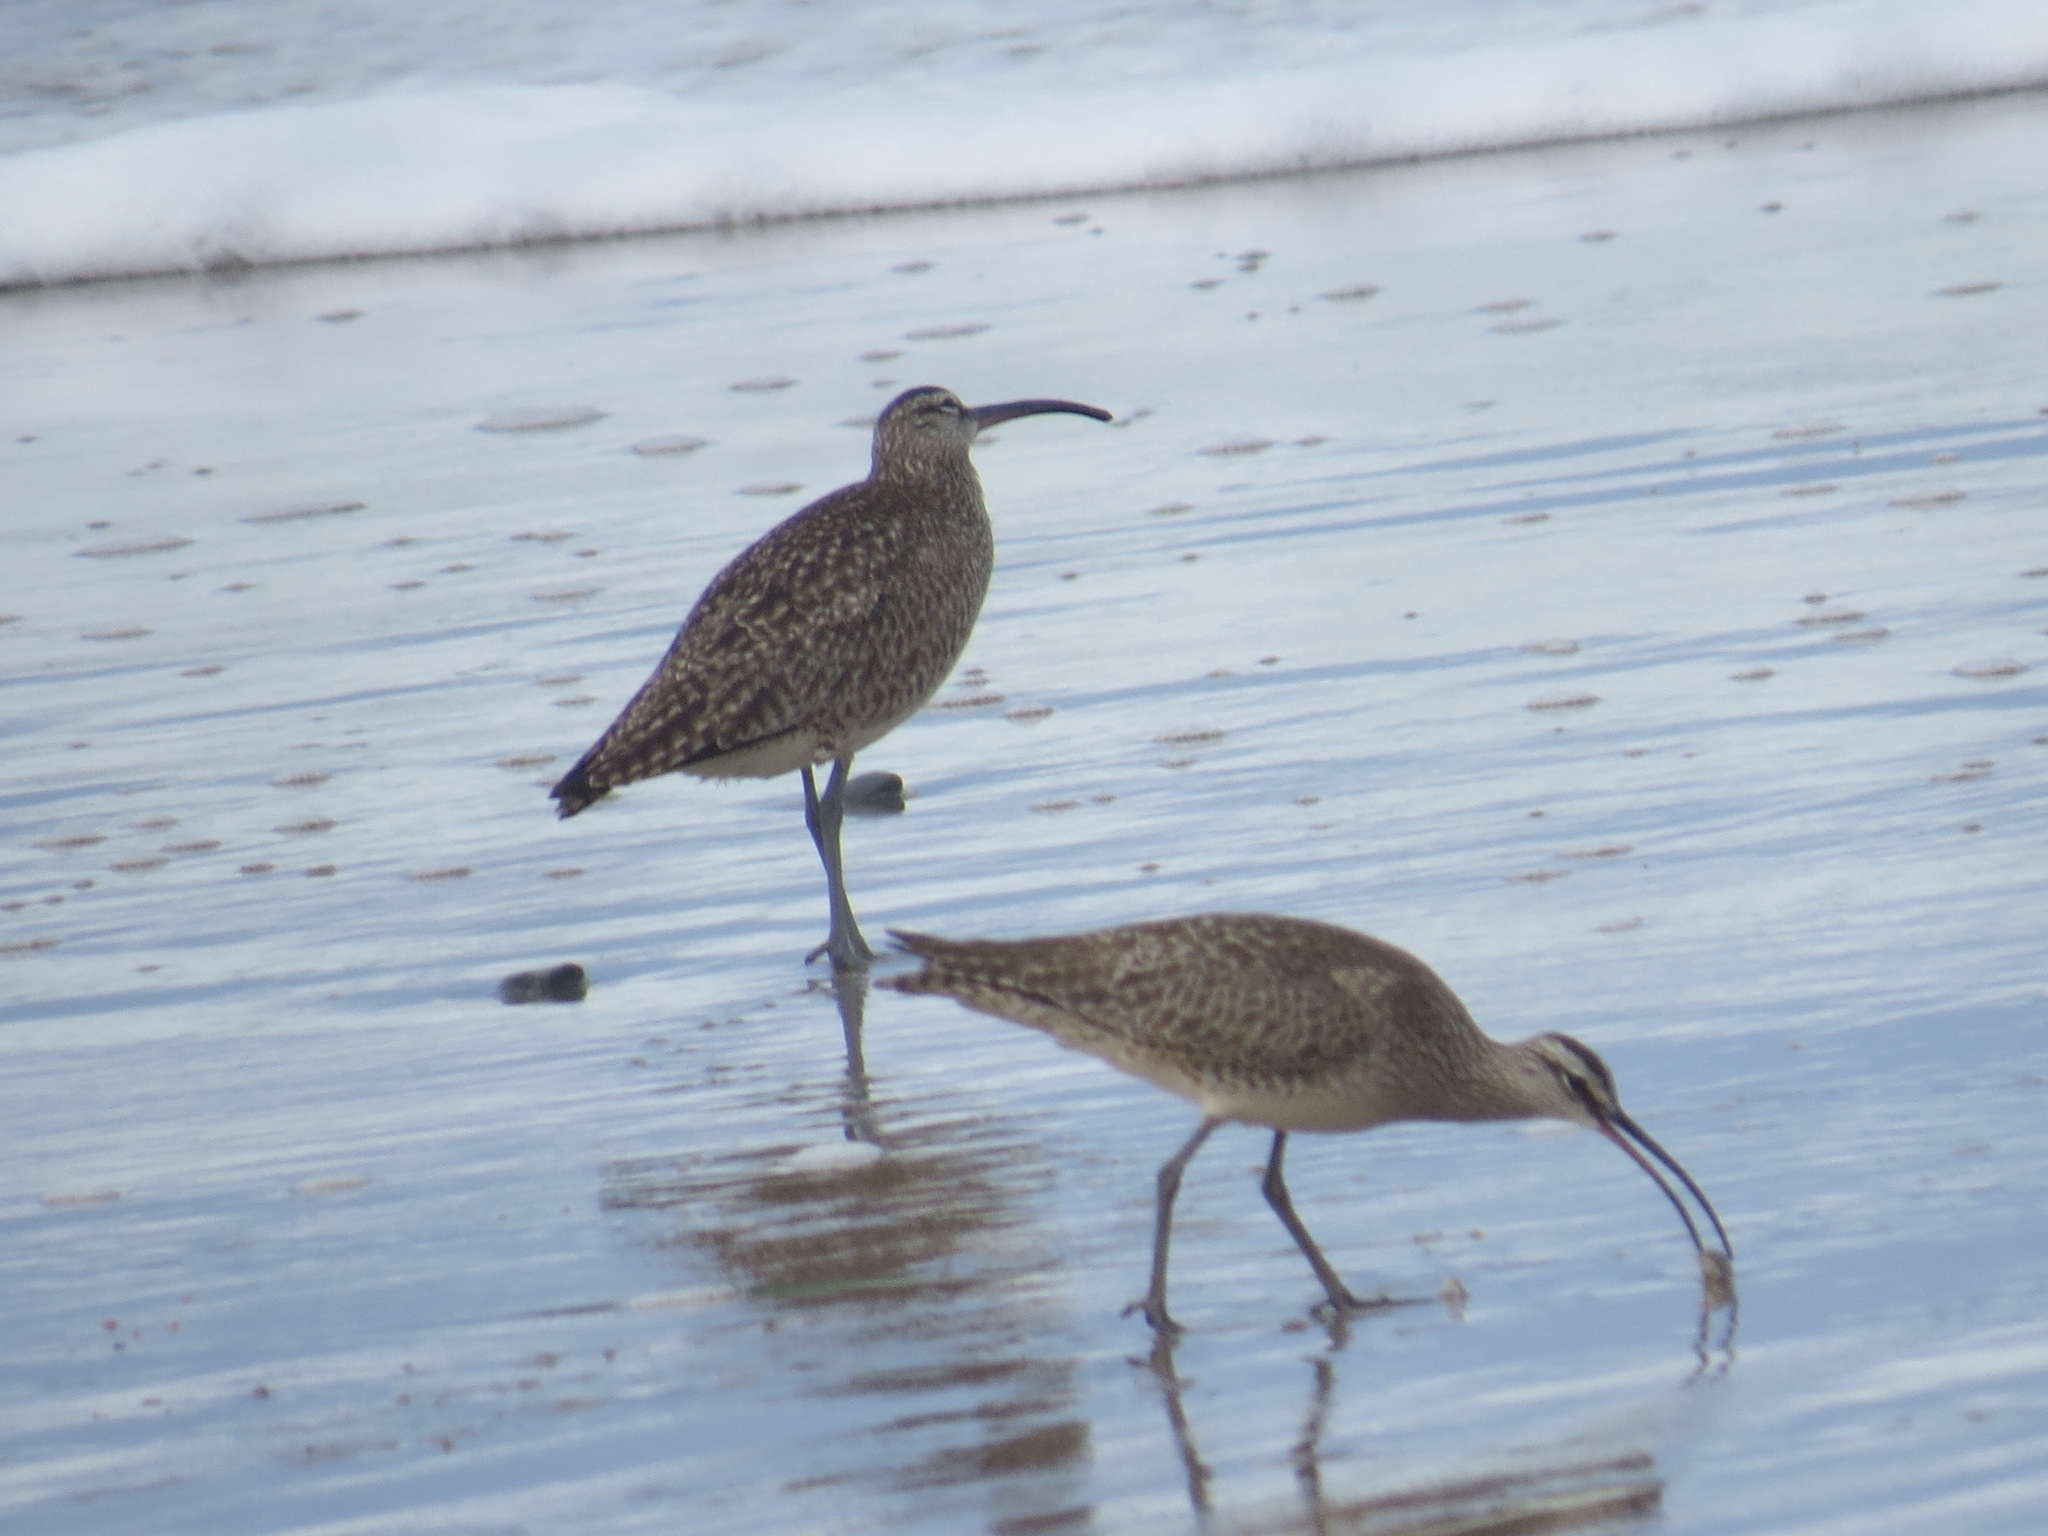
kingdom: Animalia
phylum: Chordata
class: Aves
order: Charadriiformes
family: Scolopacidae
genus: Numenius
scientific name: Numenius phaeopus
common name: Whimbrel
